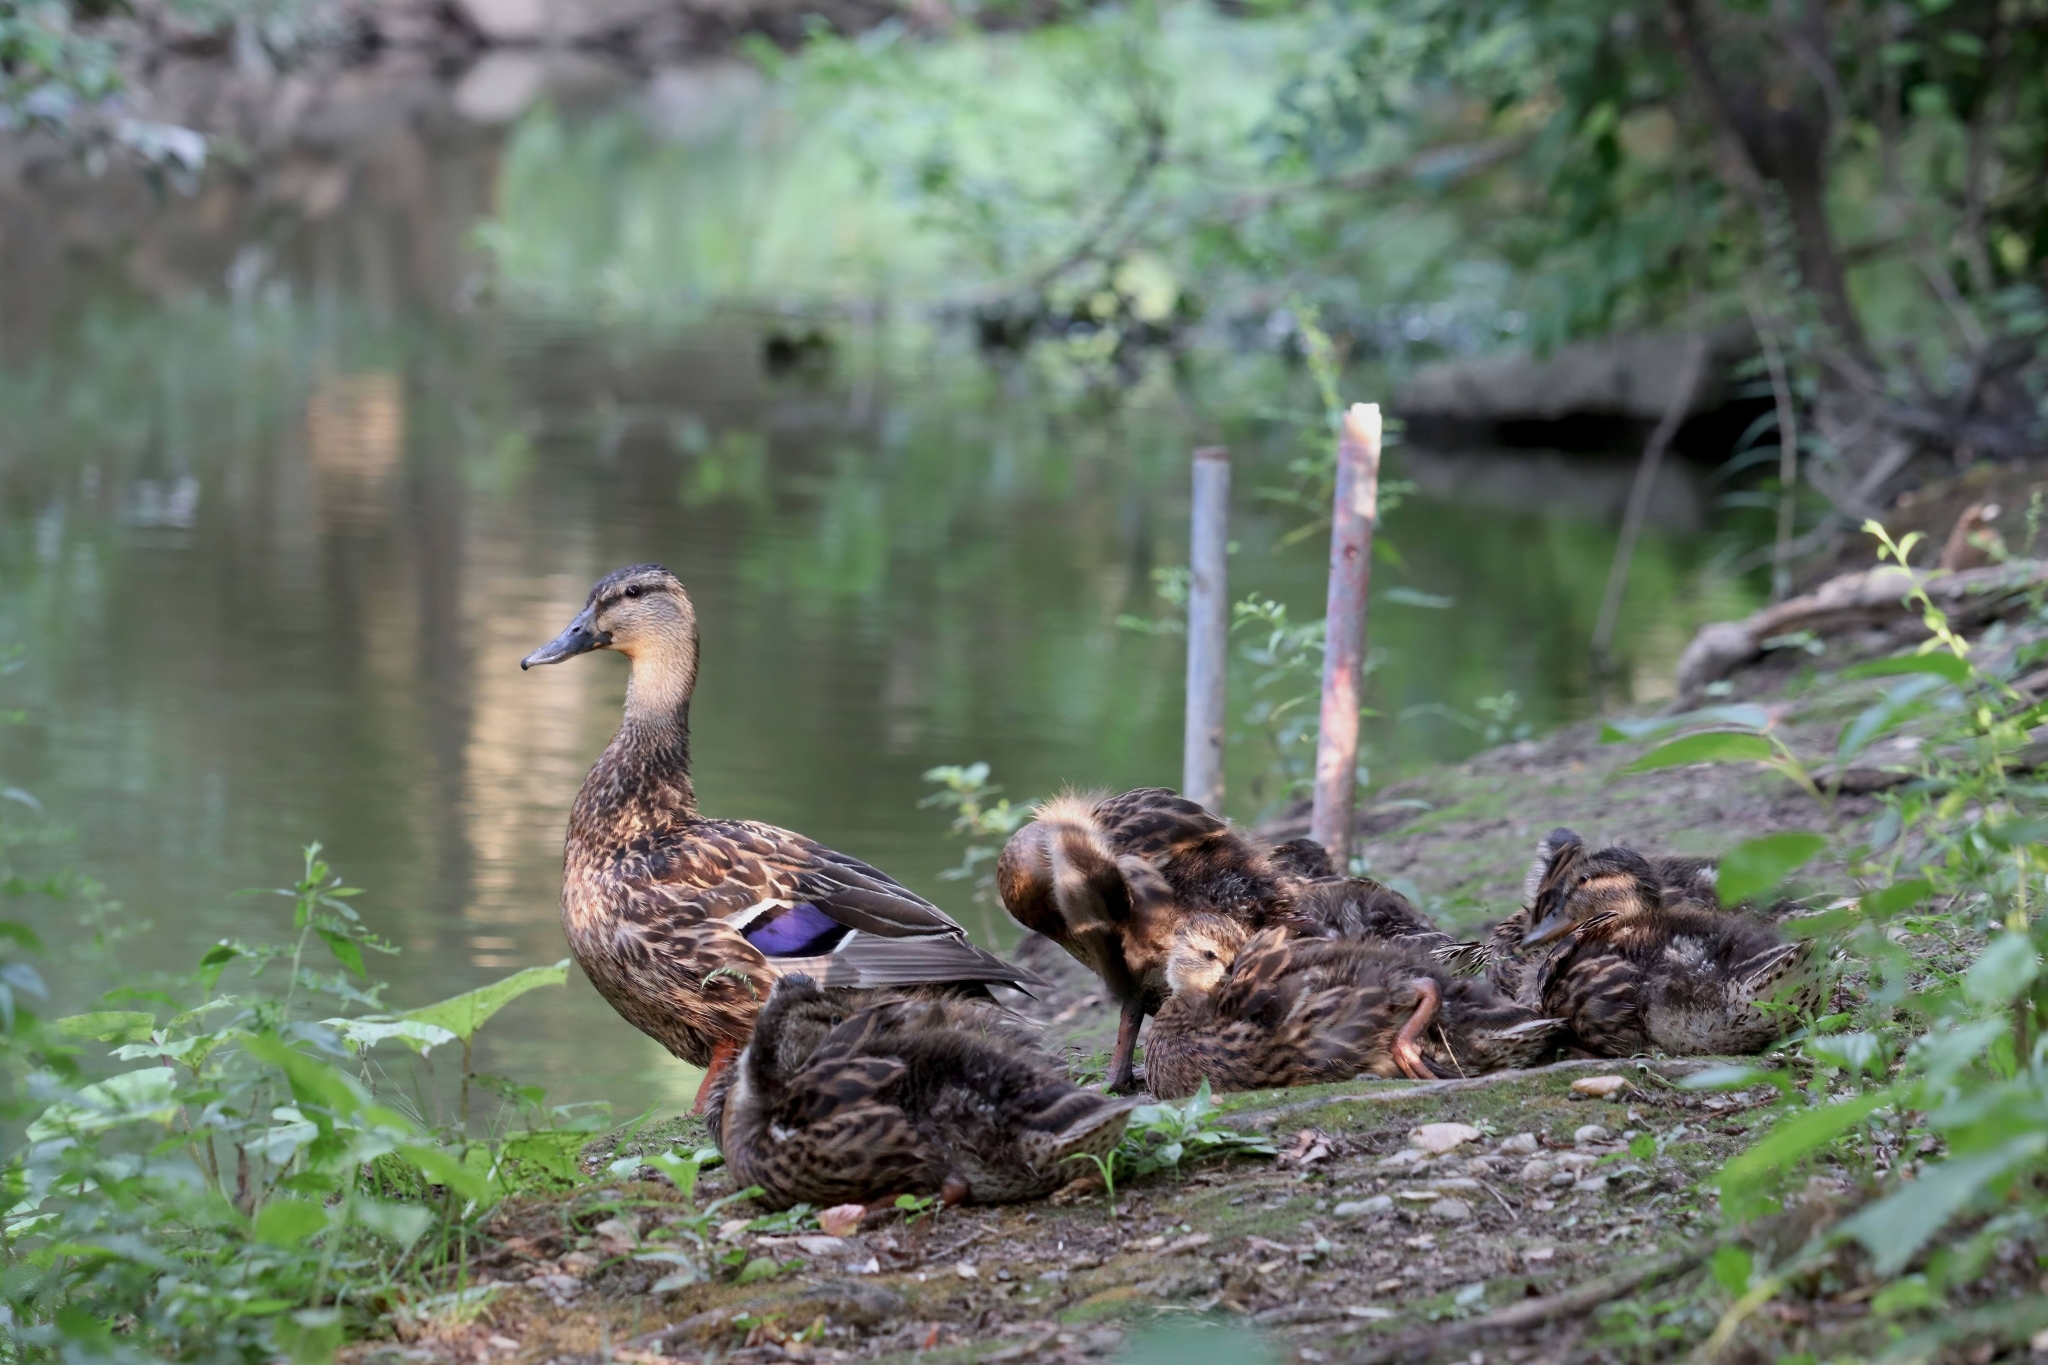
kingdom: Animalia
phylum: Chordata
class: Aves
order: Anseriformes
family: Anatidae
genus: Anas
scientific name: Anas platyrhynchos
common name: Mallard
